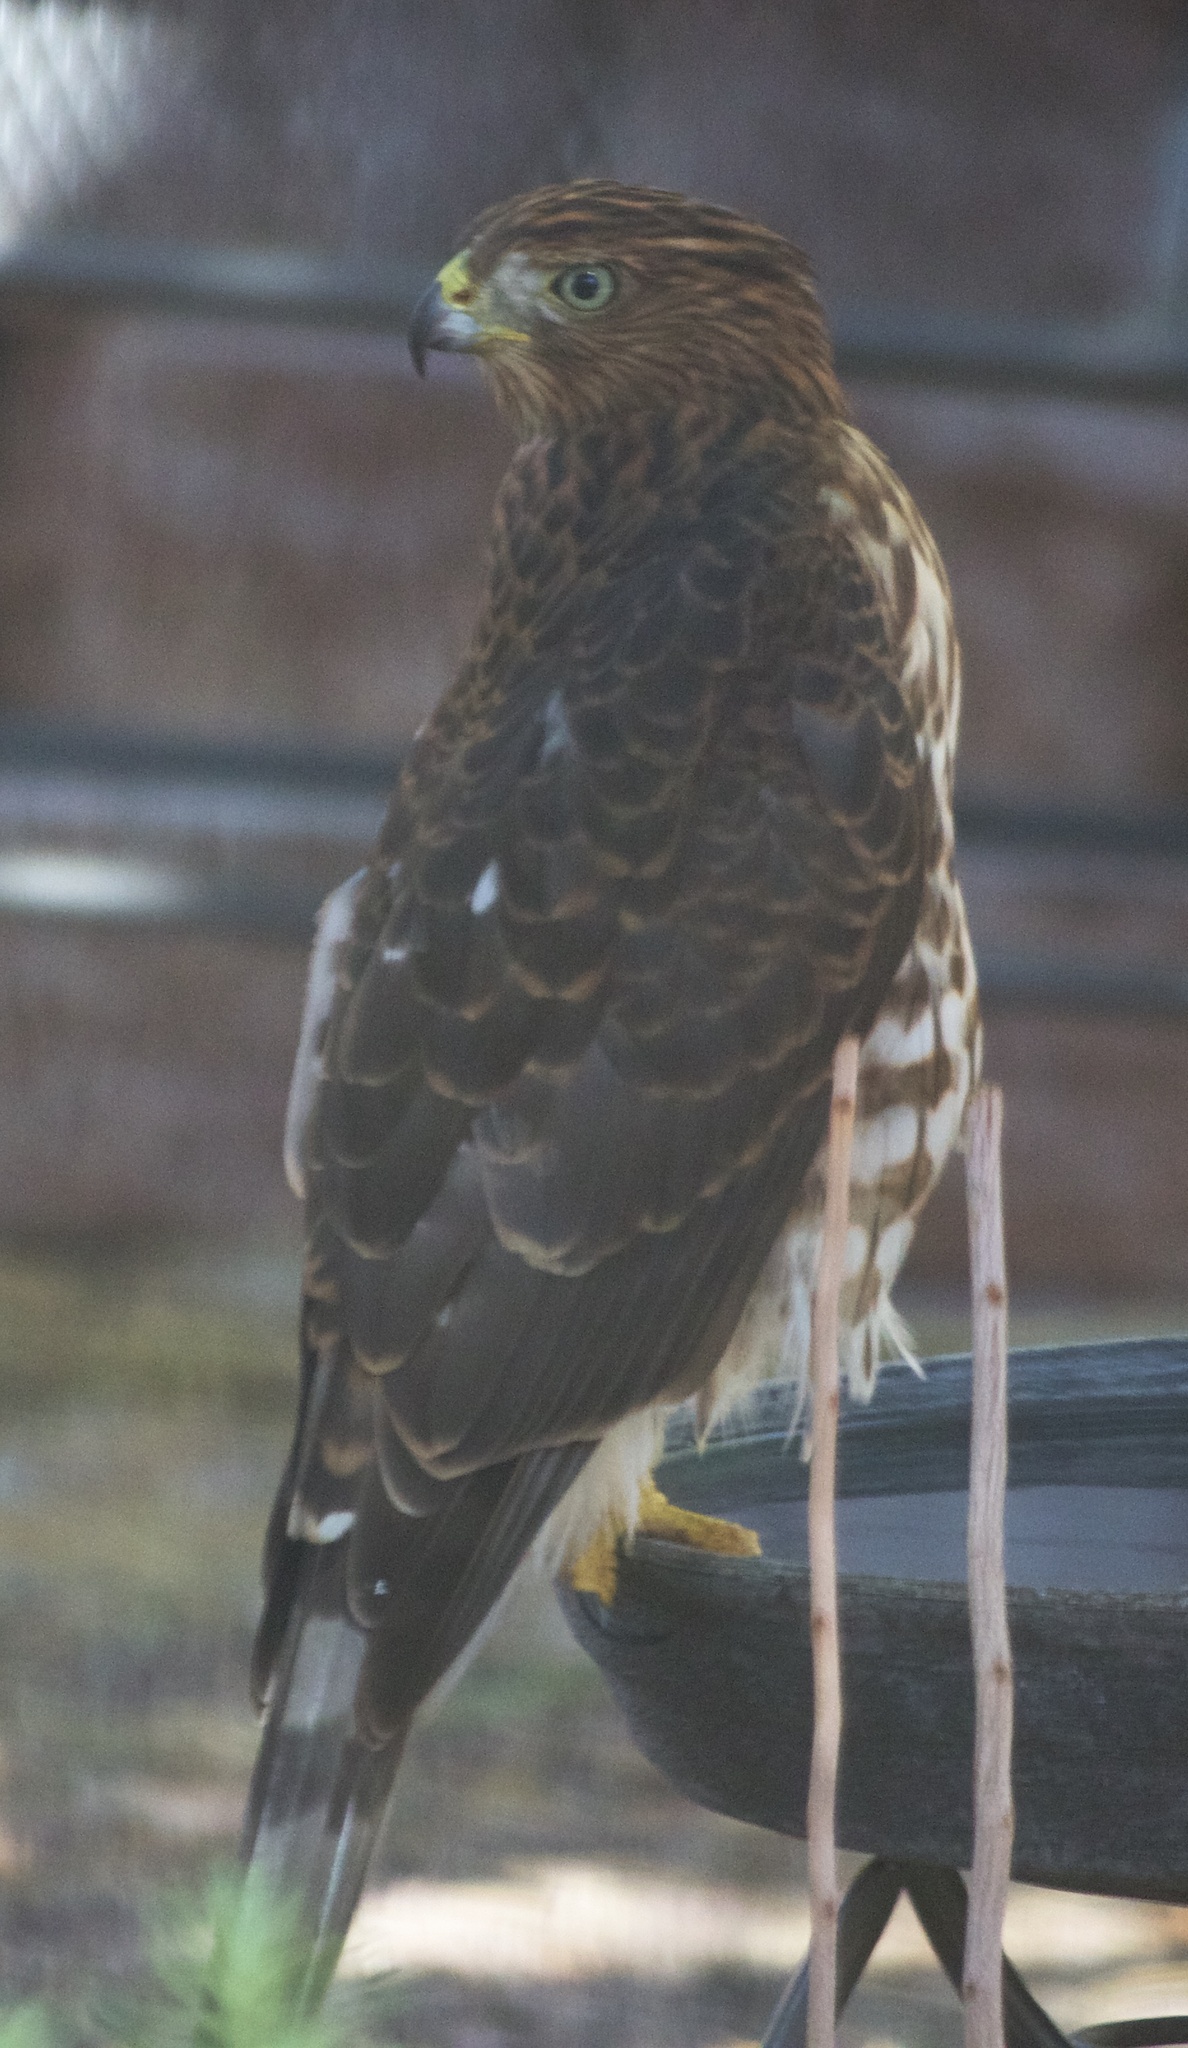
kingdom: Animalia
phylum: Chordata
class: Aves
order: Accipitriformes
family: Accipitridae
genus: Accipiter
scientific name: Accipiter cooperii
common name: Cooper's hawk
